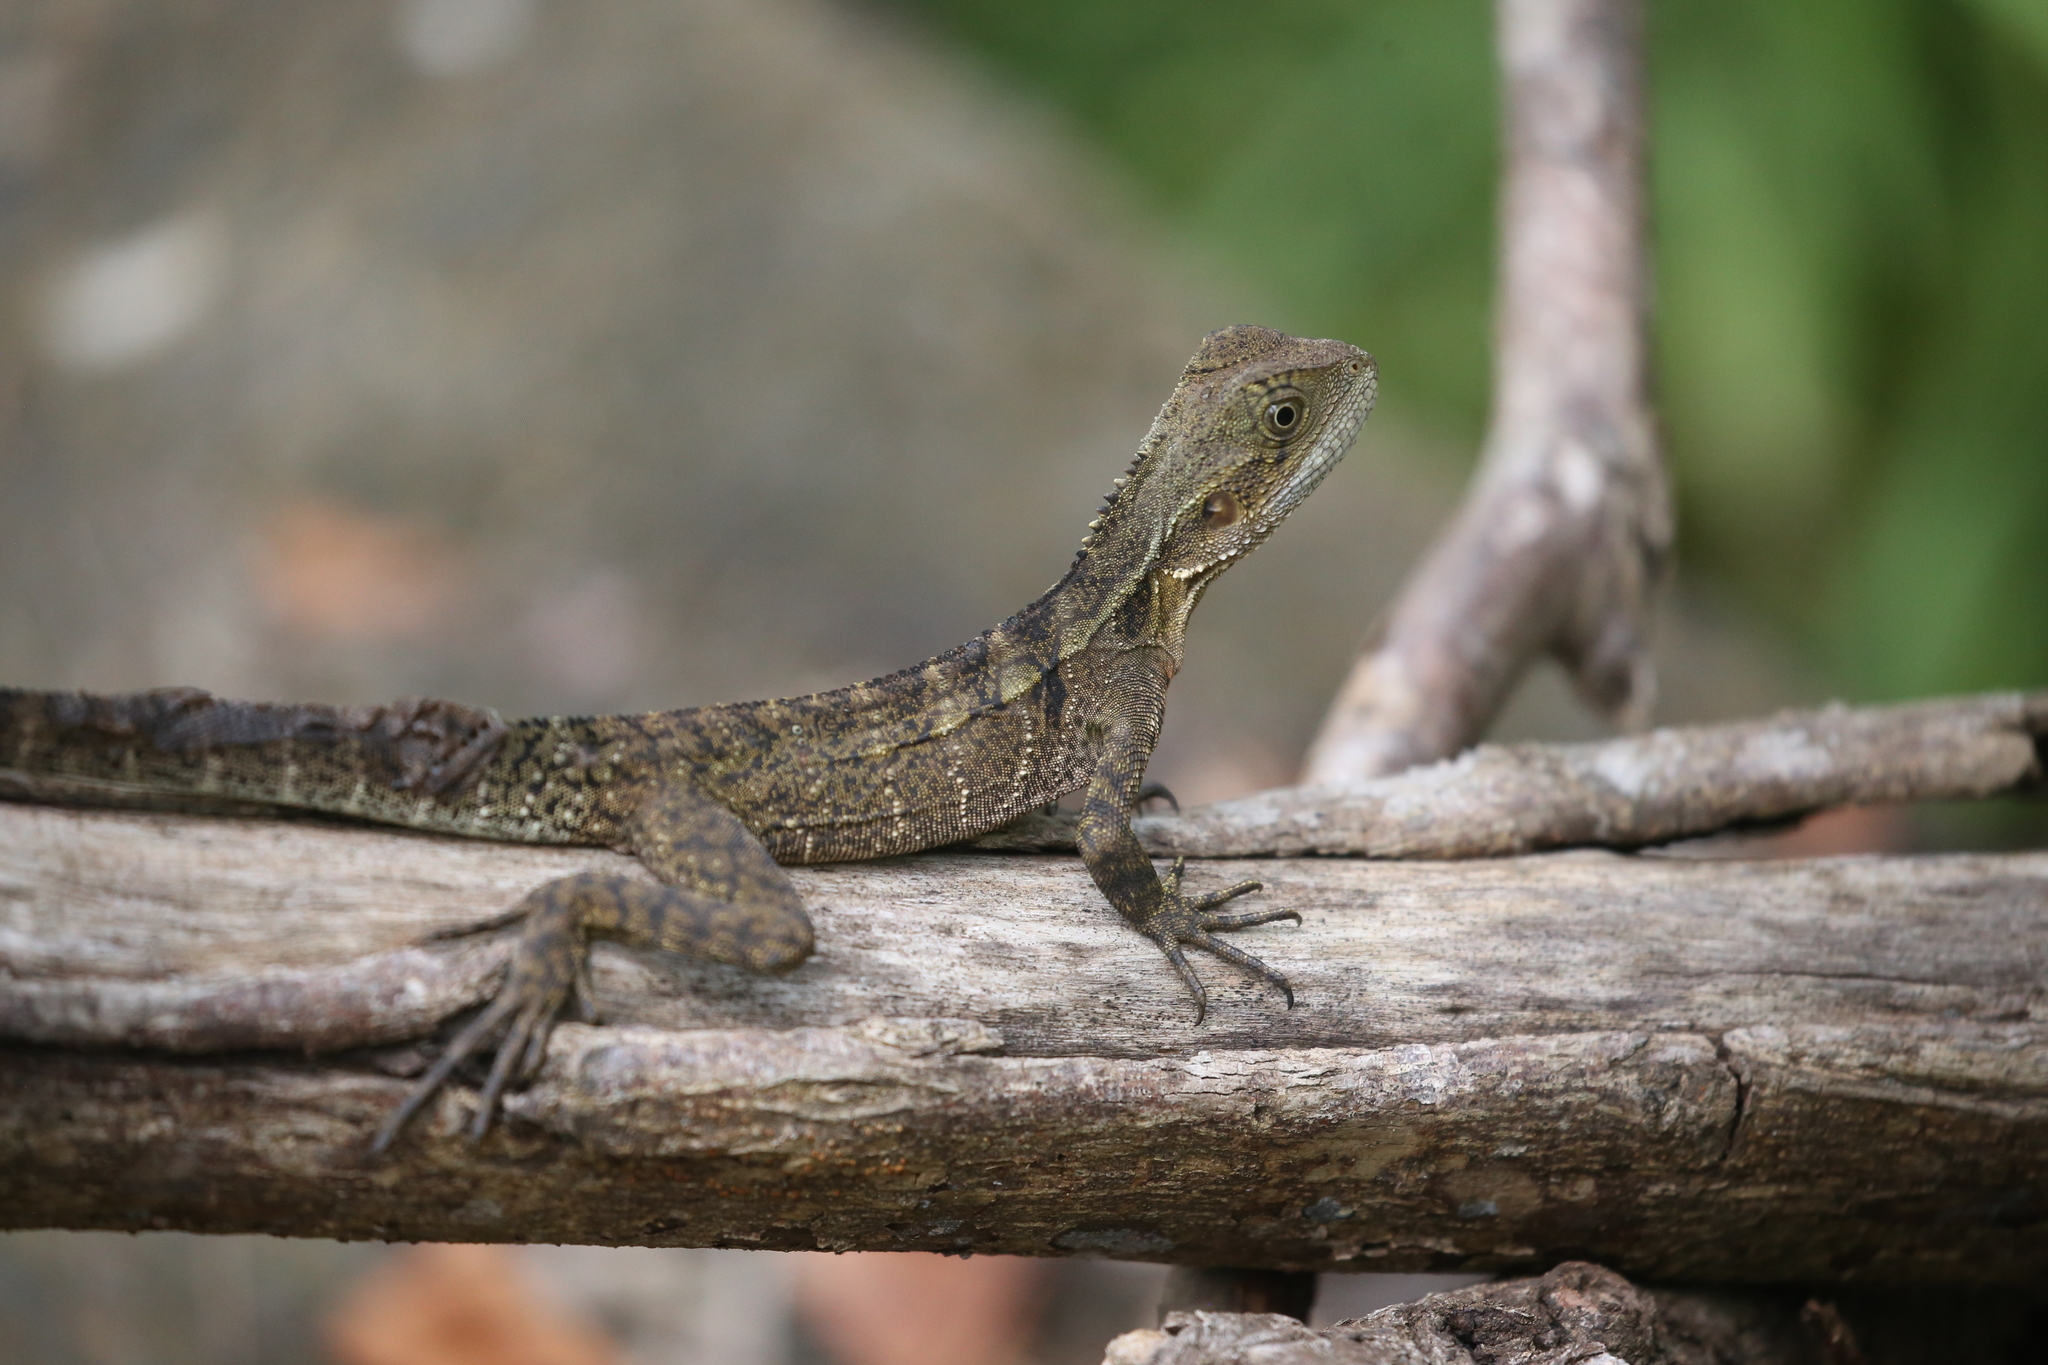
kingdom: Animalia
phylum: Chordata
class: Squamata
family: Agamidae
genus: Intellagama
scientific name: Intellagama lesueurii
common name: Eastern water dragon
